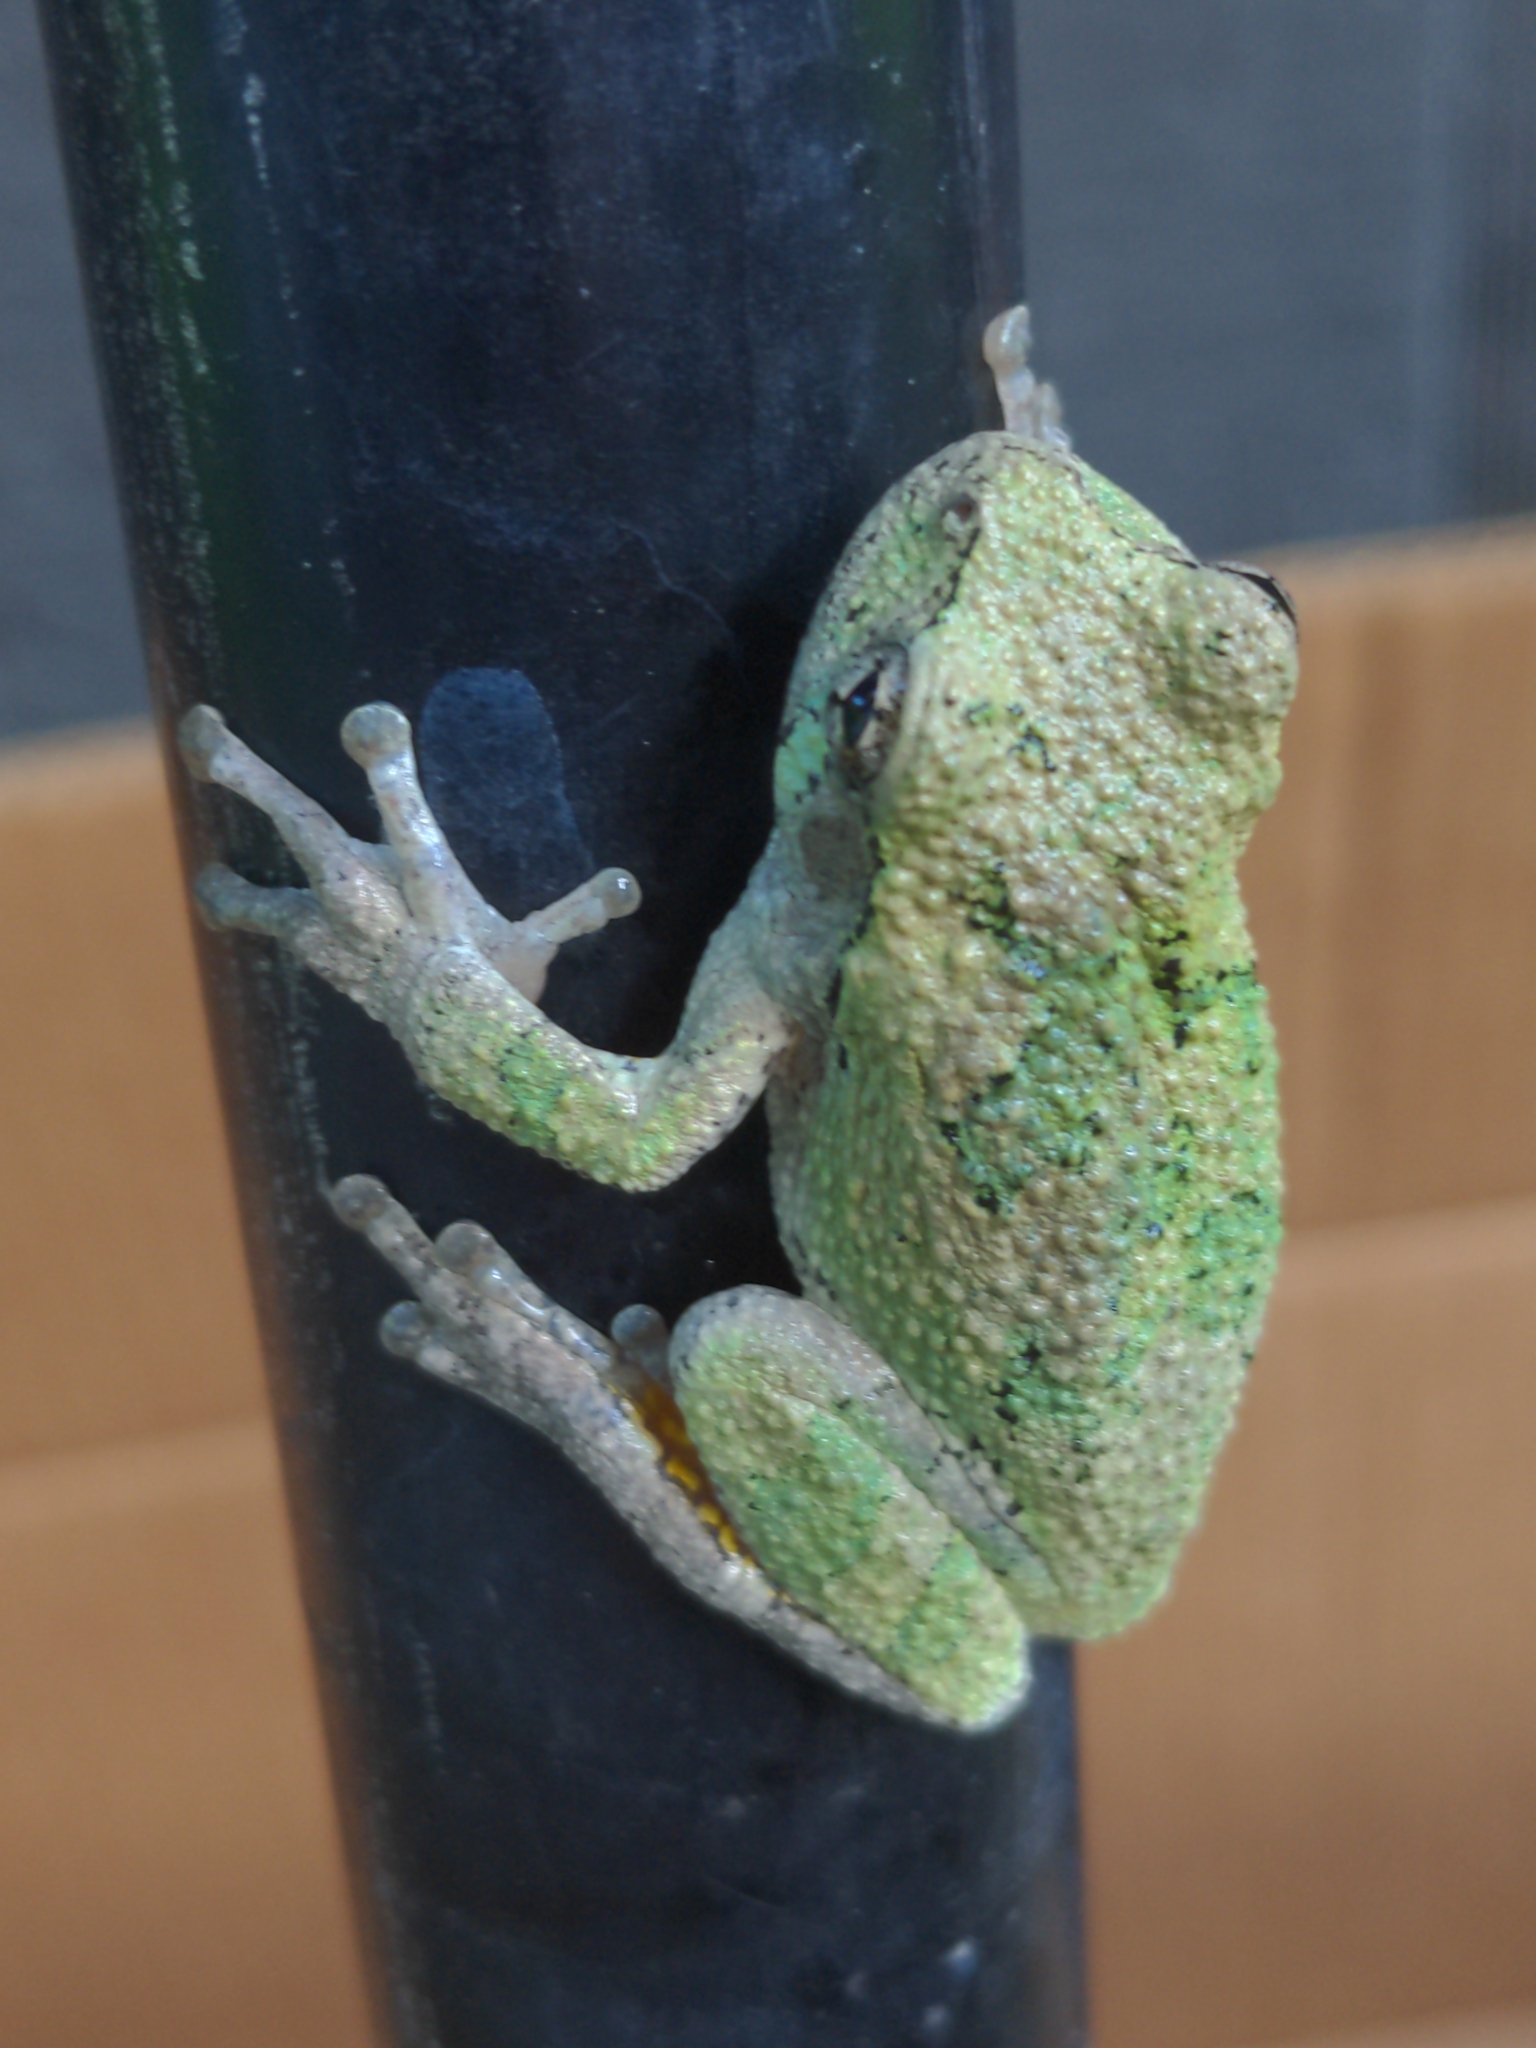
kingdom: Animalia
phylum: Chordata
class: Amphibia
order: Anura
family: Hylidae
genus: Hyla
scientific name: Hyla
